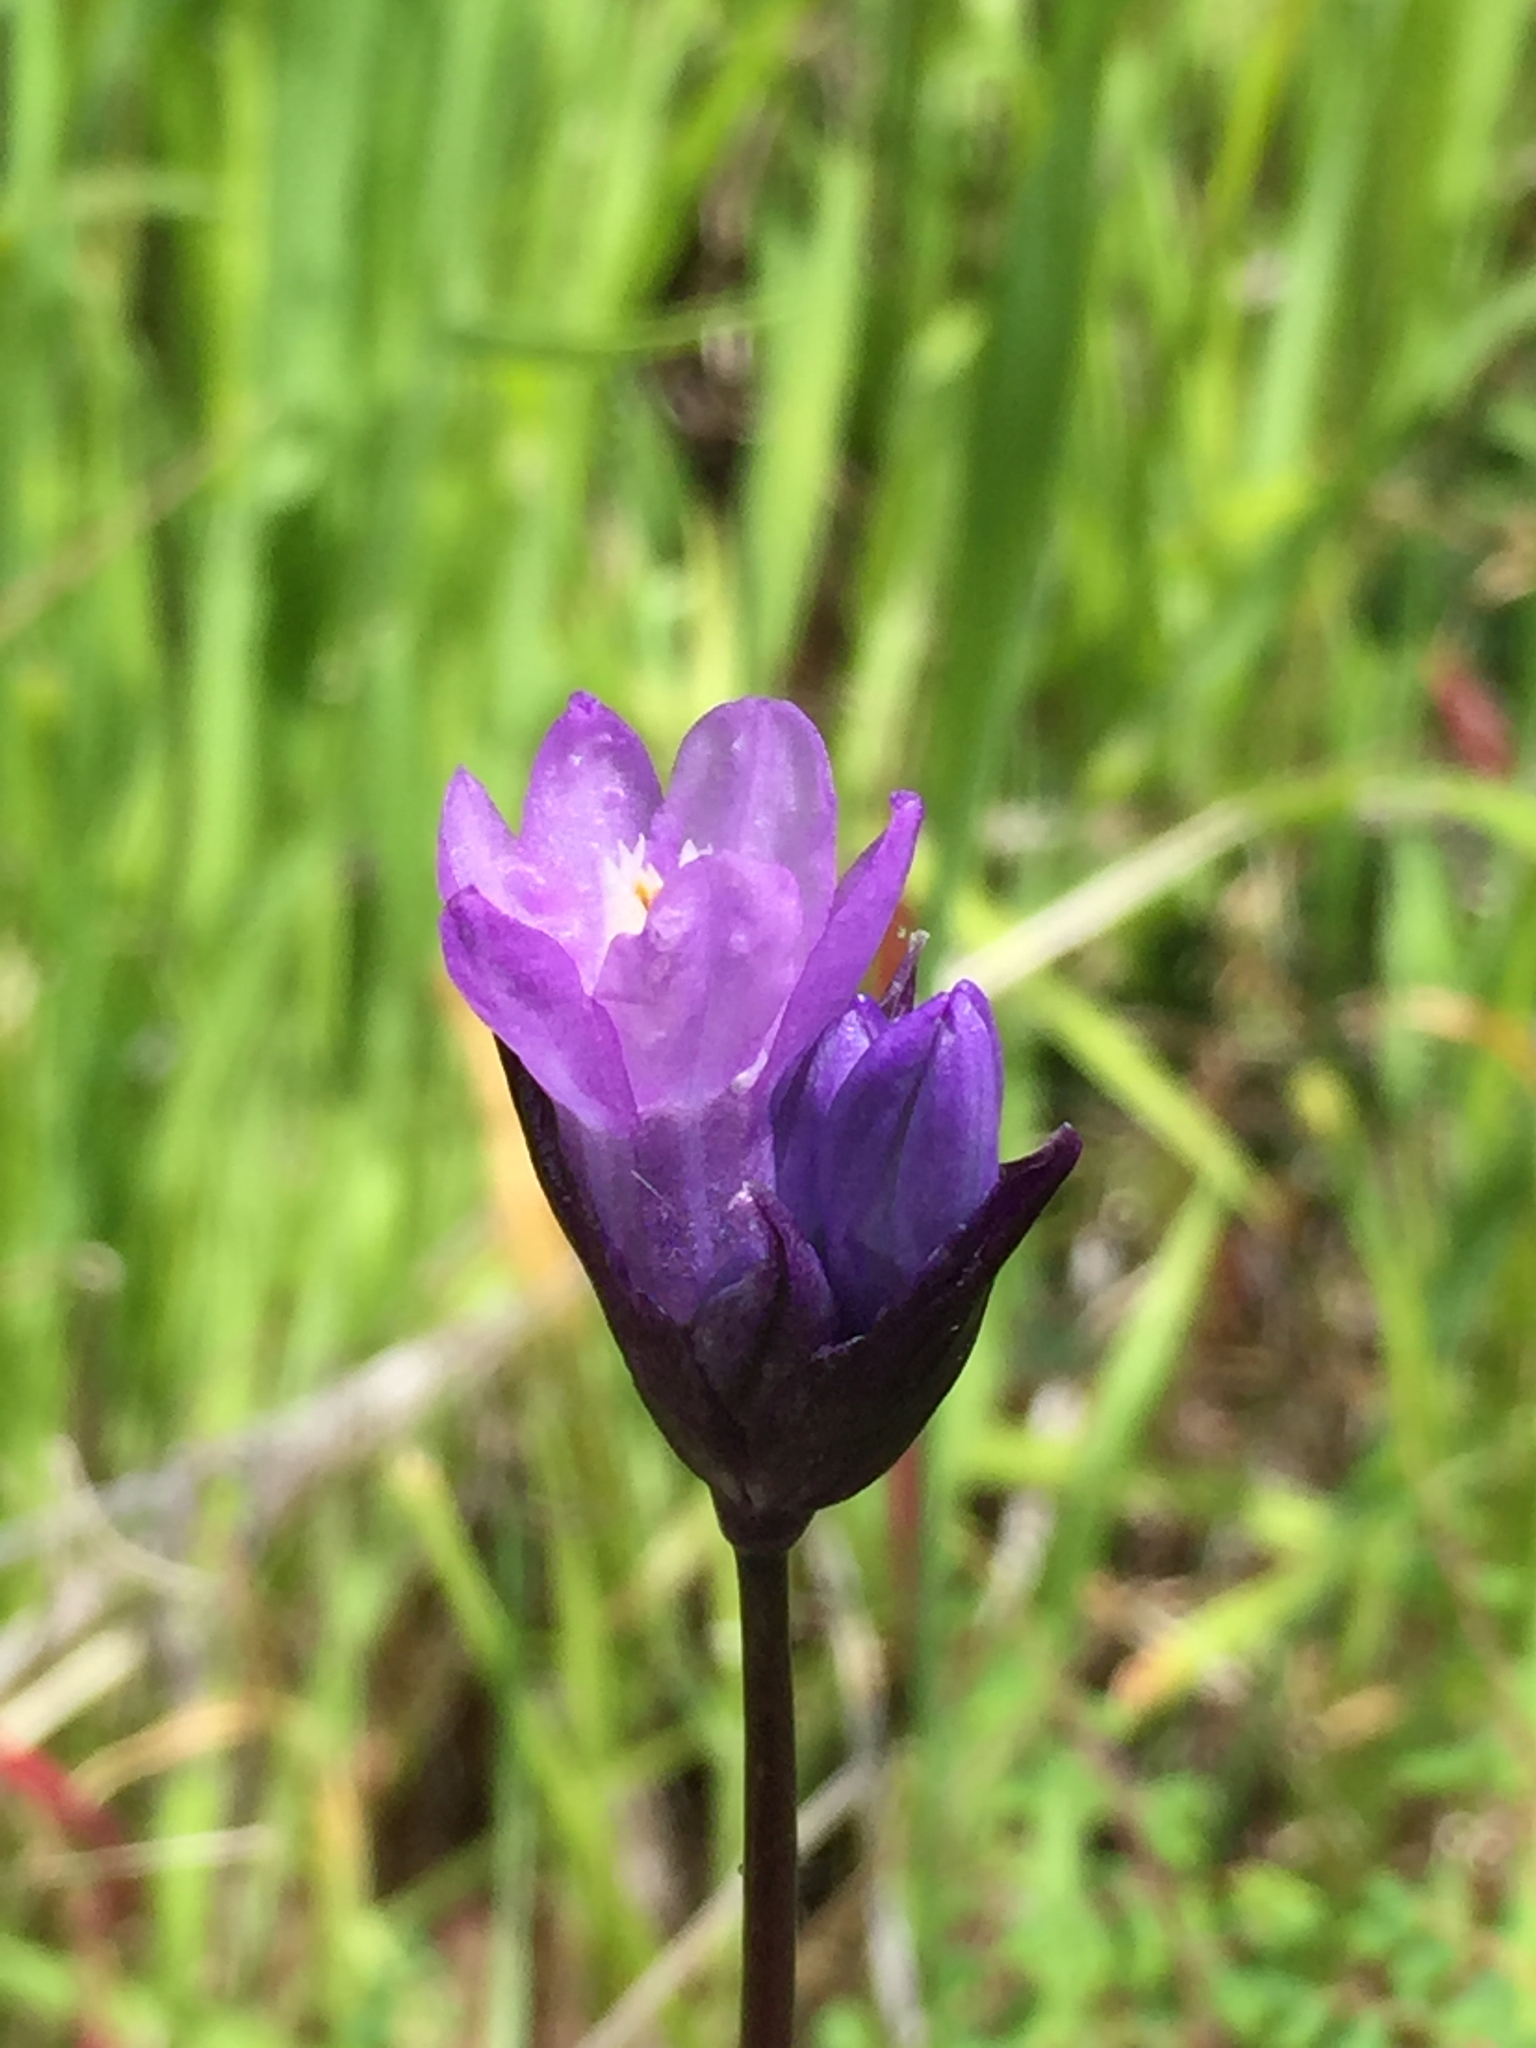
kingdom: Plantae
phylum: Tracheophyta
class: Liliopsida
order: Asparagales
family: Asparagaceae
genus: Dipterostemon
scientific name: Dipterostemon capitatus
